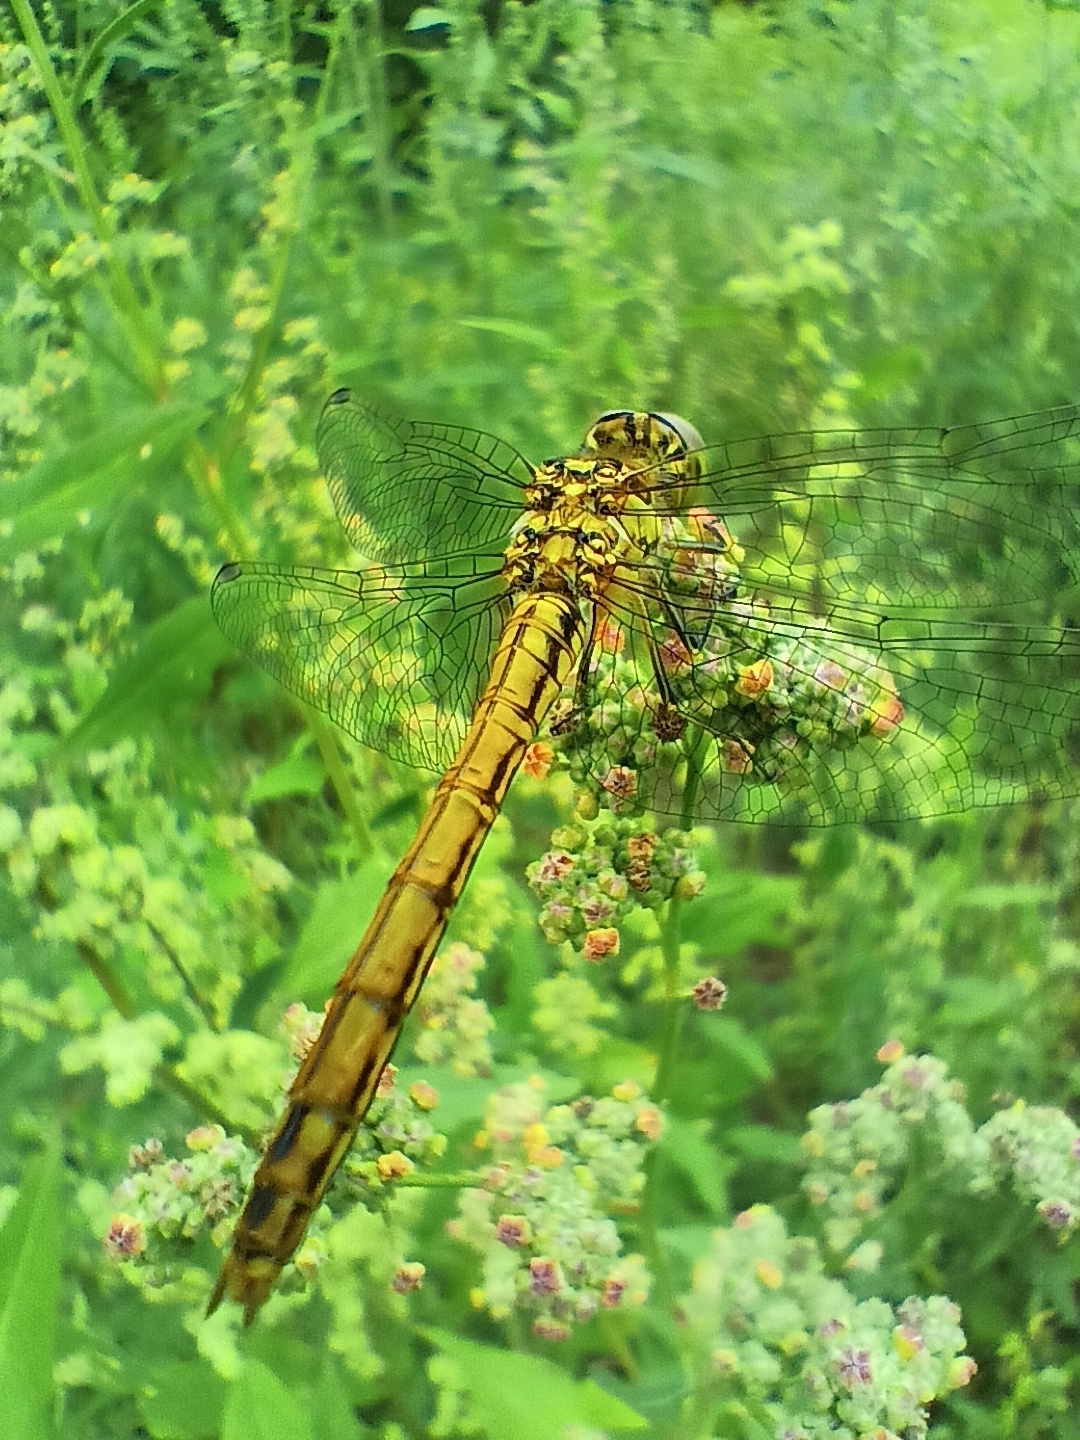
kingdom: Animalia
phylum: Arthropoda
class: Insecta
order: Odonata
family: Libellulidae
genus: Sympetrum
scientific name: Sympetrum vulgatum
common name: Vagrant darter
